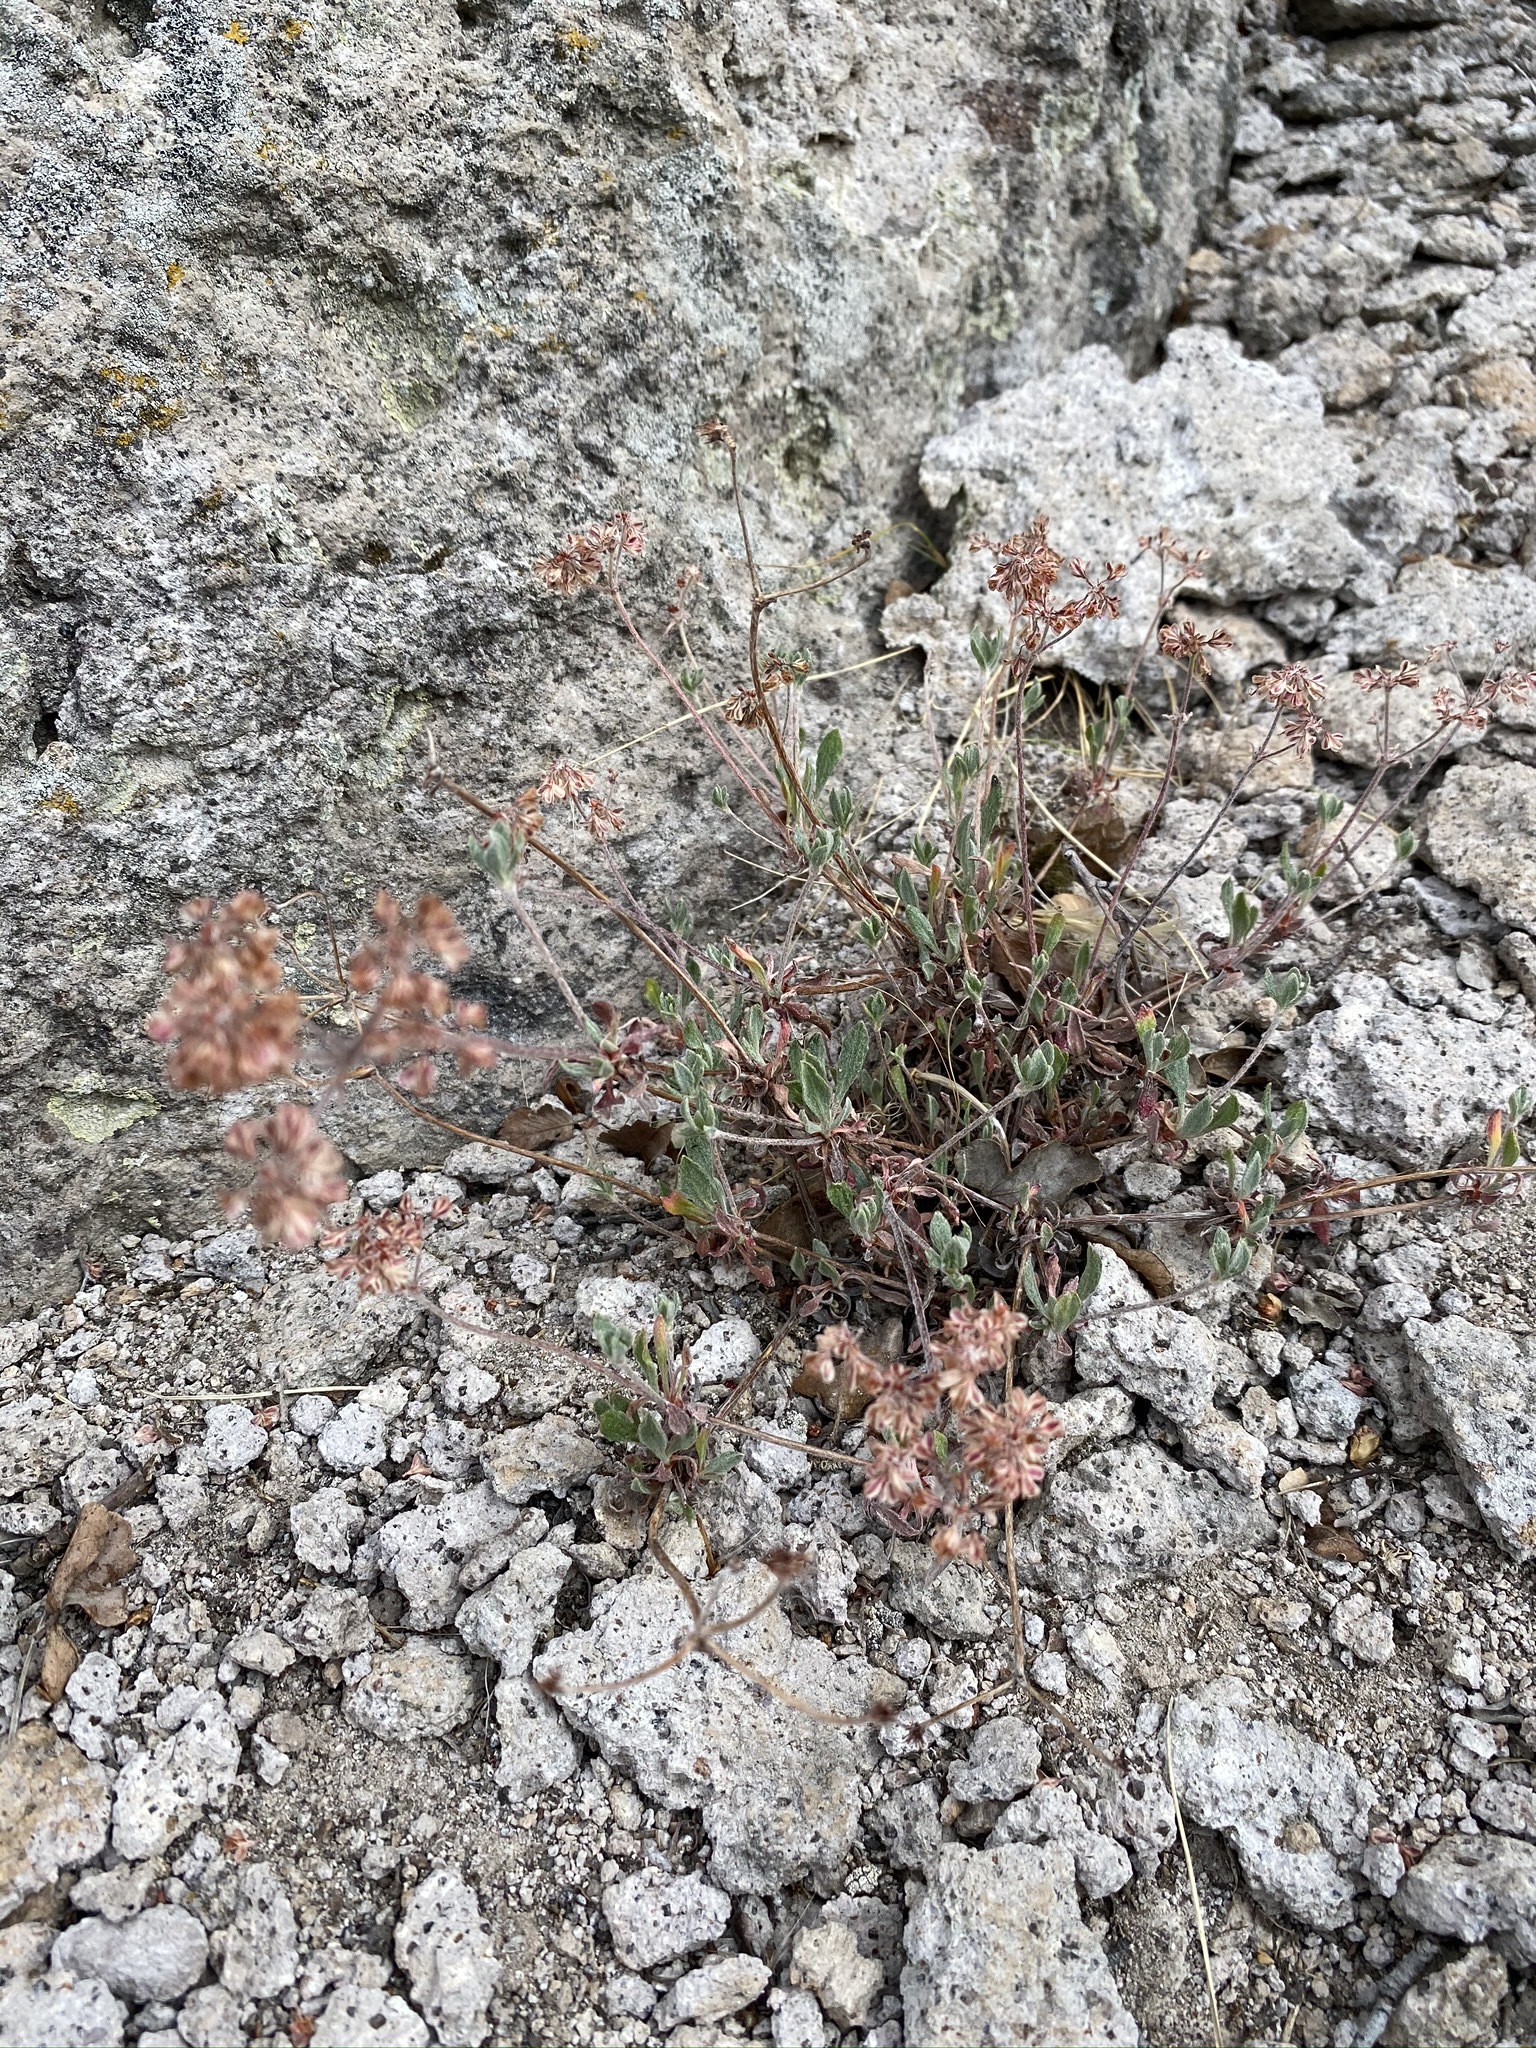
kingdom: Plantae
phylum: Tracheophyta
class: Magnoliopsida
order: Caryophyllales
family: Polygonaceae
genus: Eriogonum
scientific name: Eriogonum umbellatum
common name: Sulfur-buckwheat
